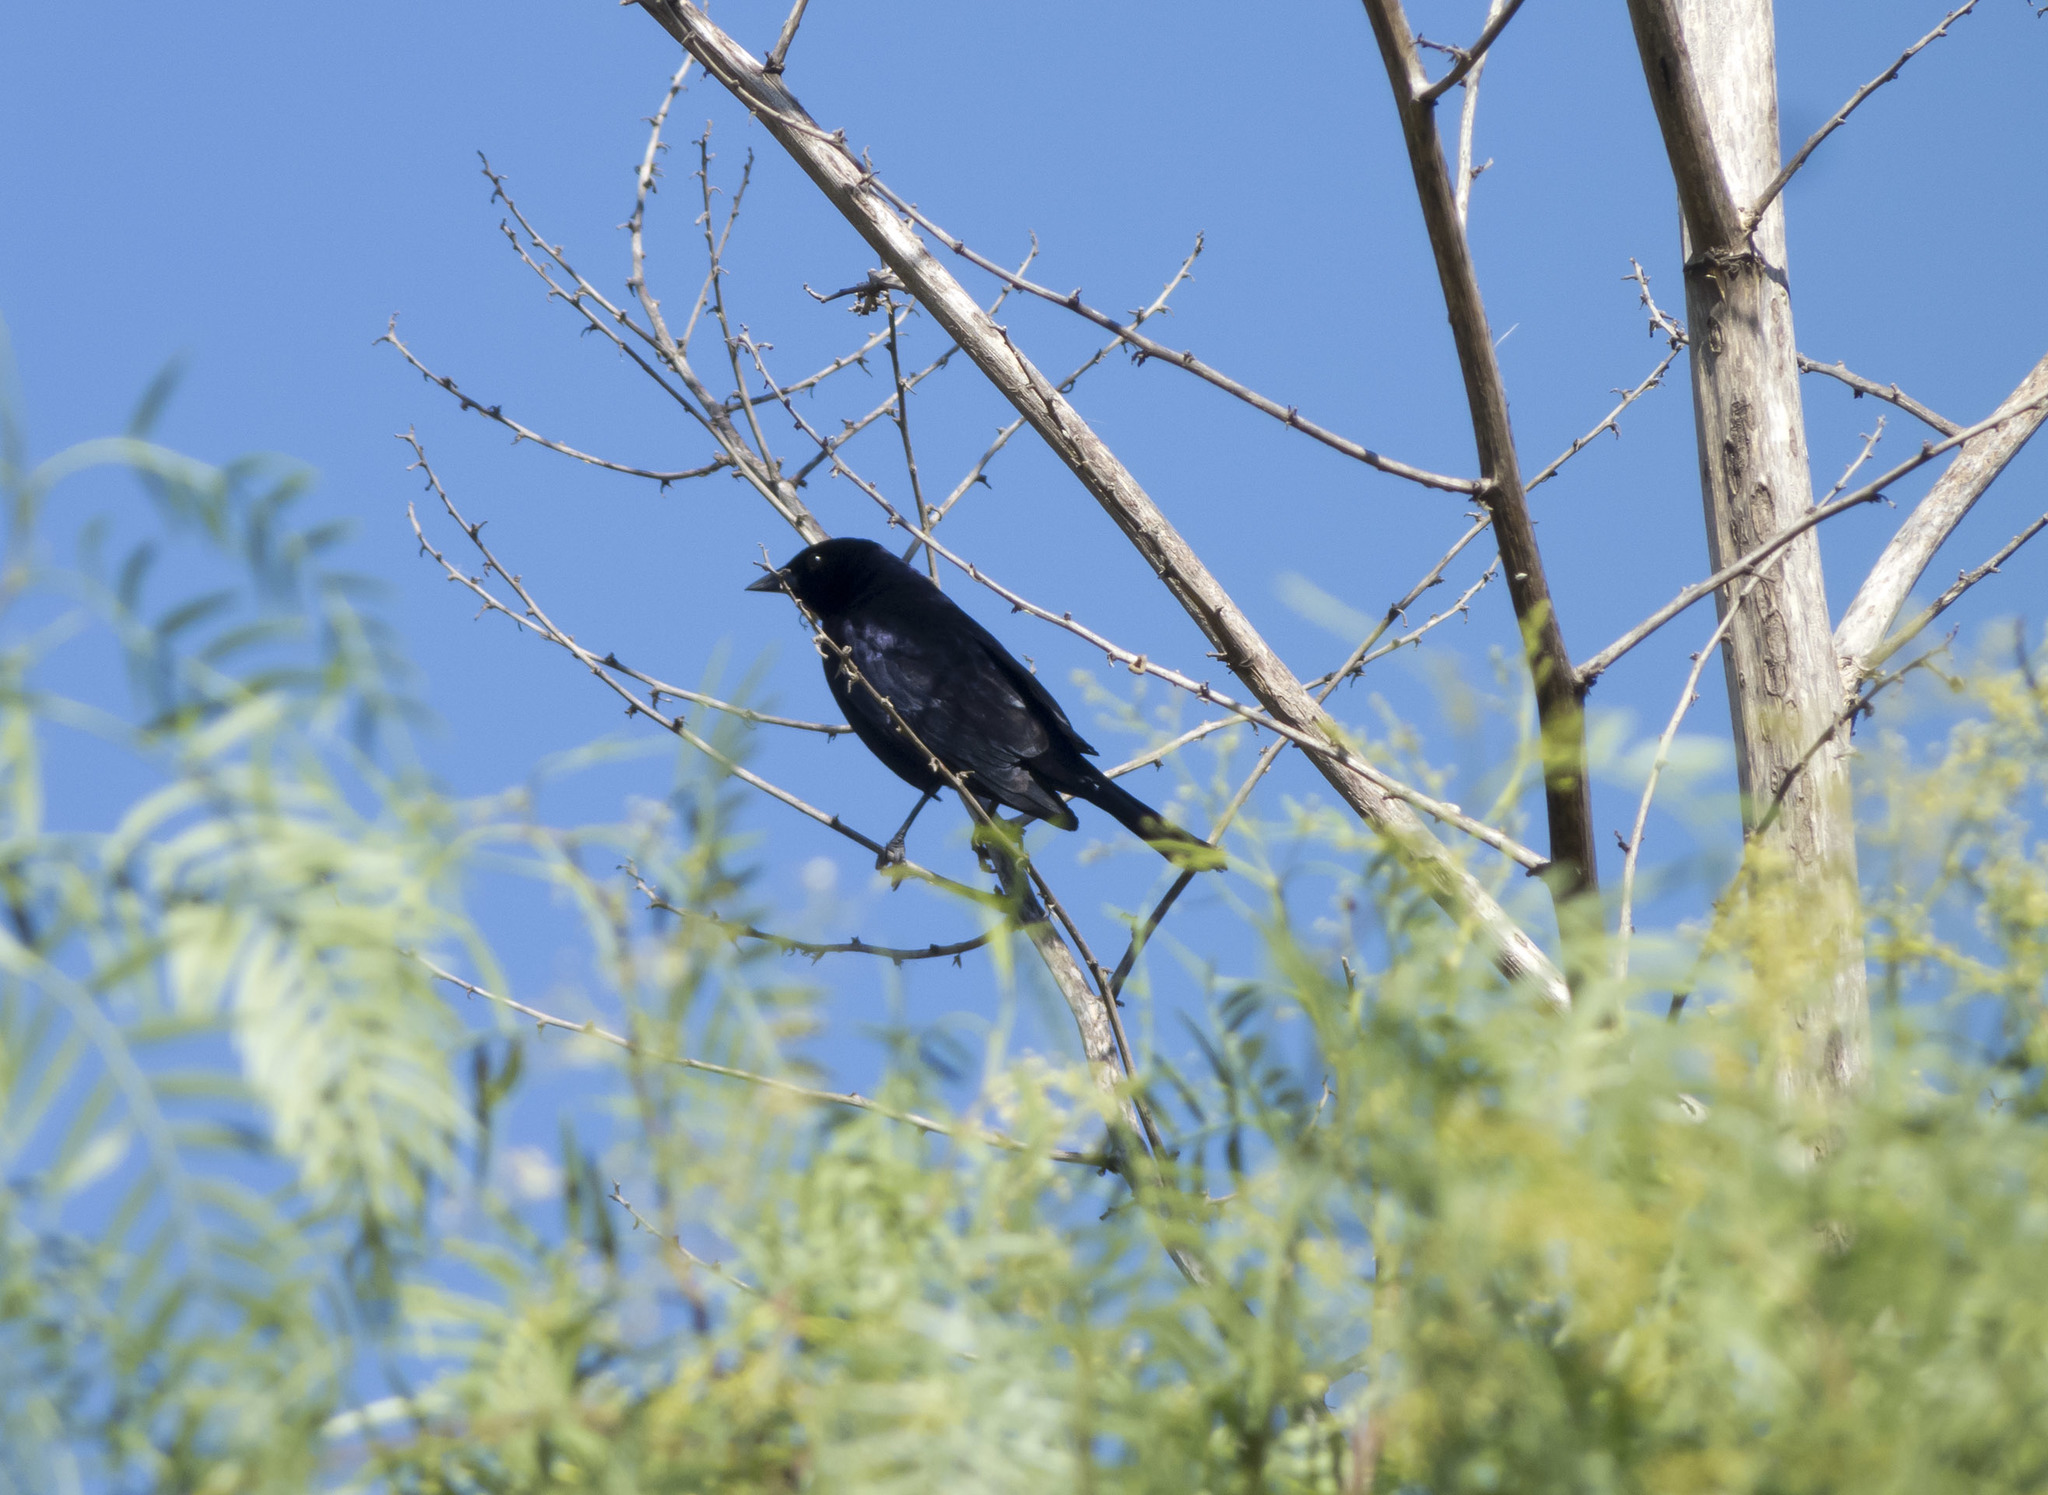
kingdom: Animalia
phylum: Chordata
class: Aves
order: Passeriformes
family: Icteridae
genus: Molothrus
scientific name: Molothrus bonariensis
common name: Shiny cowbird
